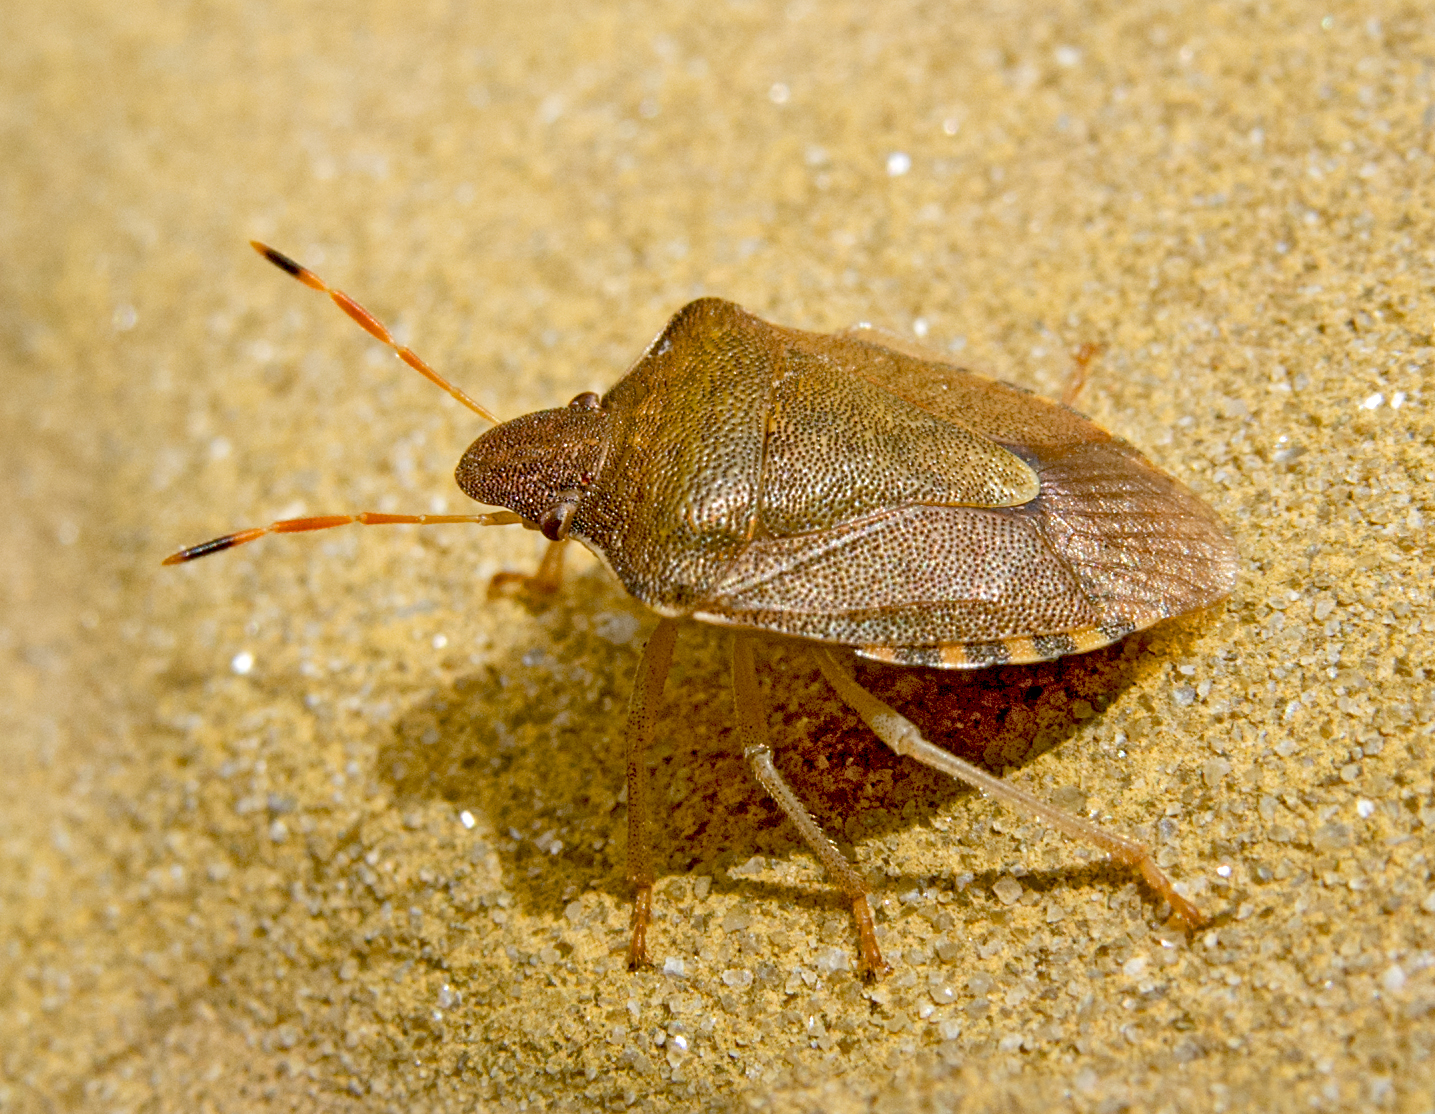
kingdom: Animalia
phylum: Arthropoda
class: Insecta
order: Hemiptera
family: Pentatomidae
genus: Holcostethus
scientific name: Holcostethus strictus
